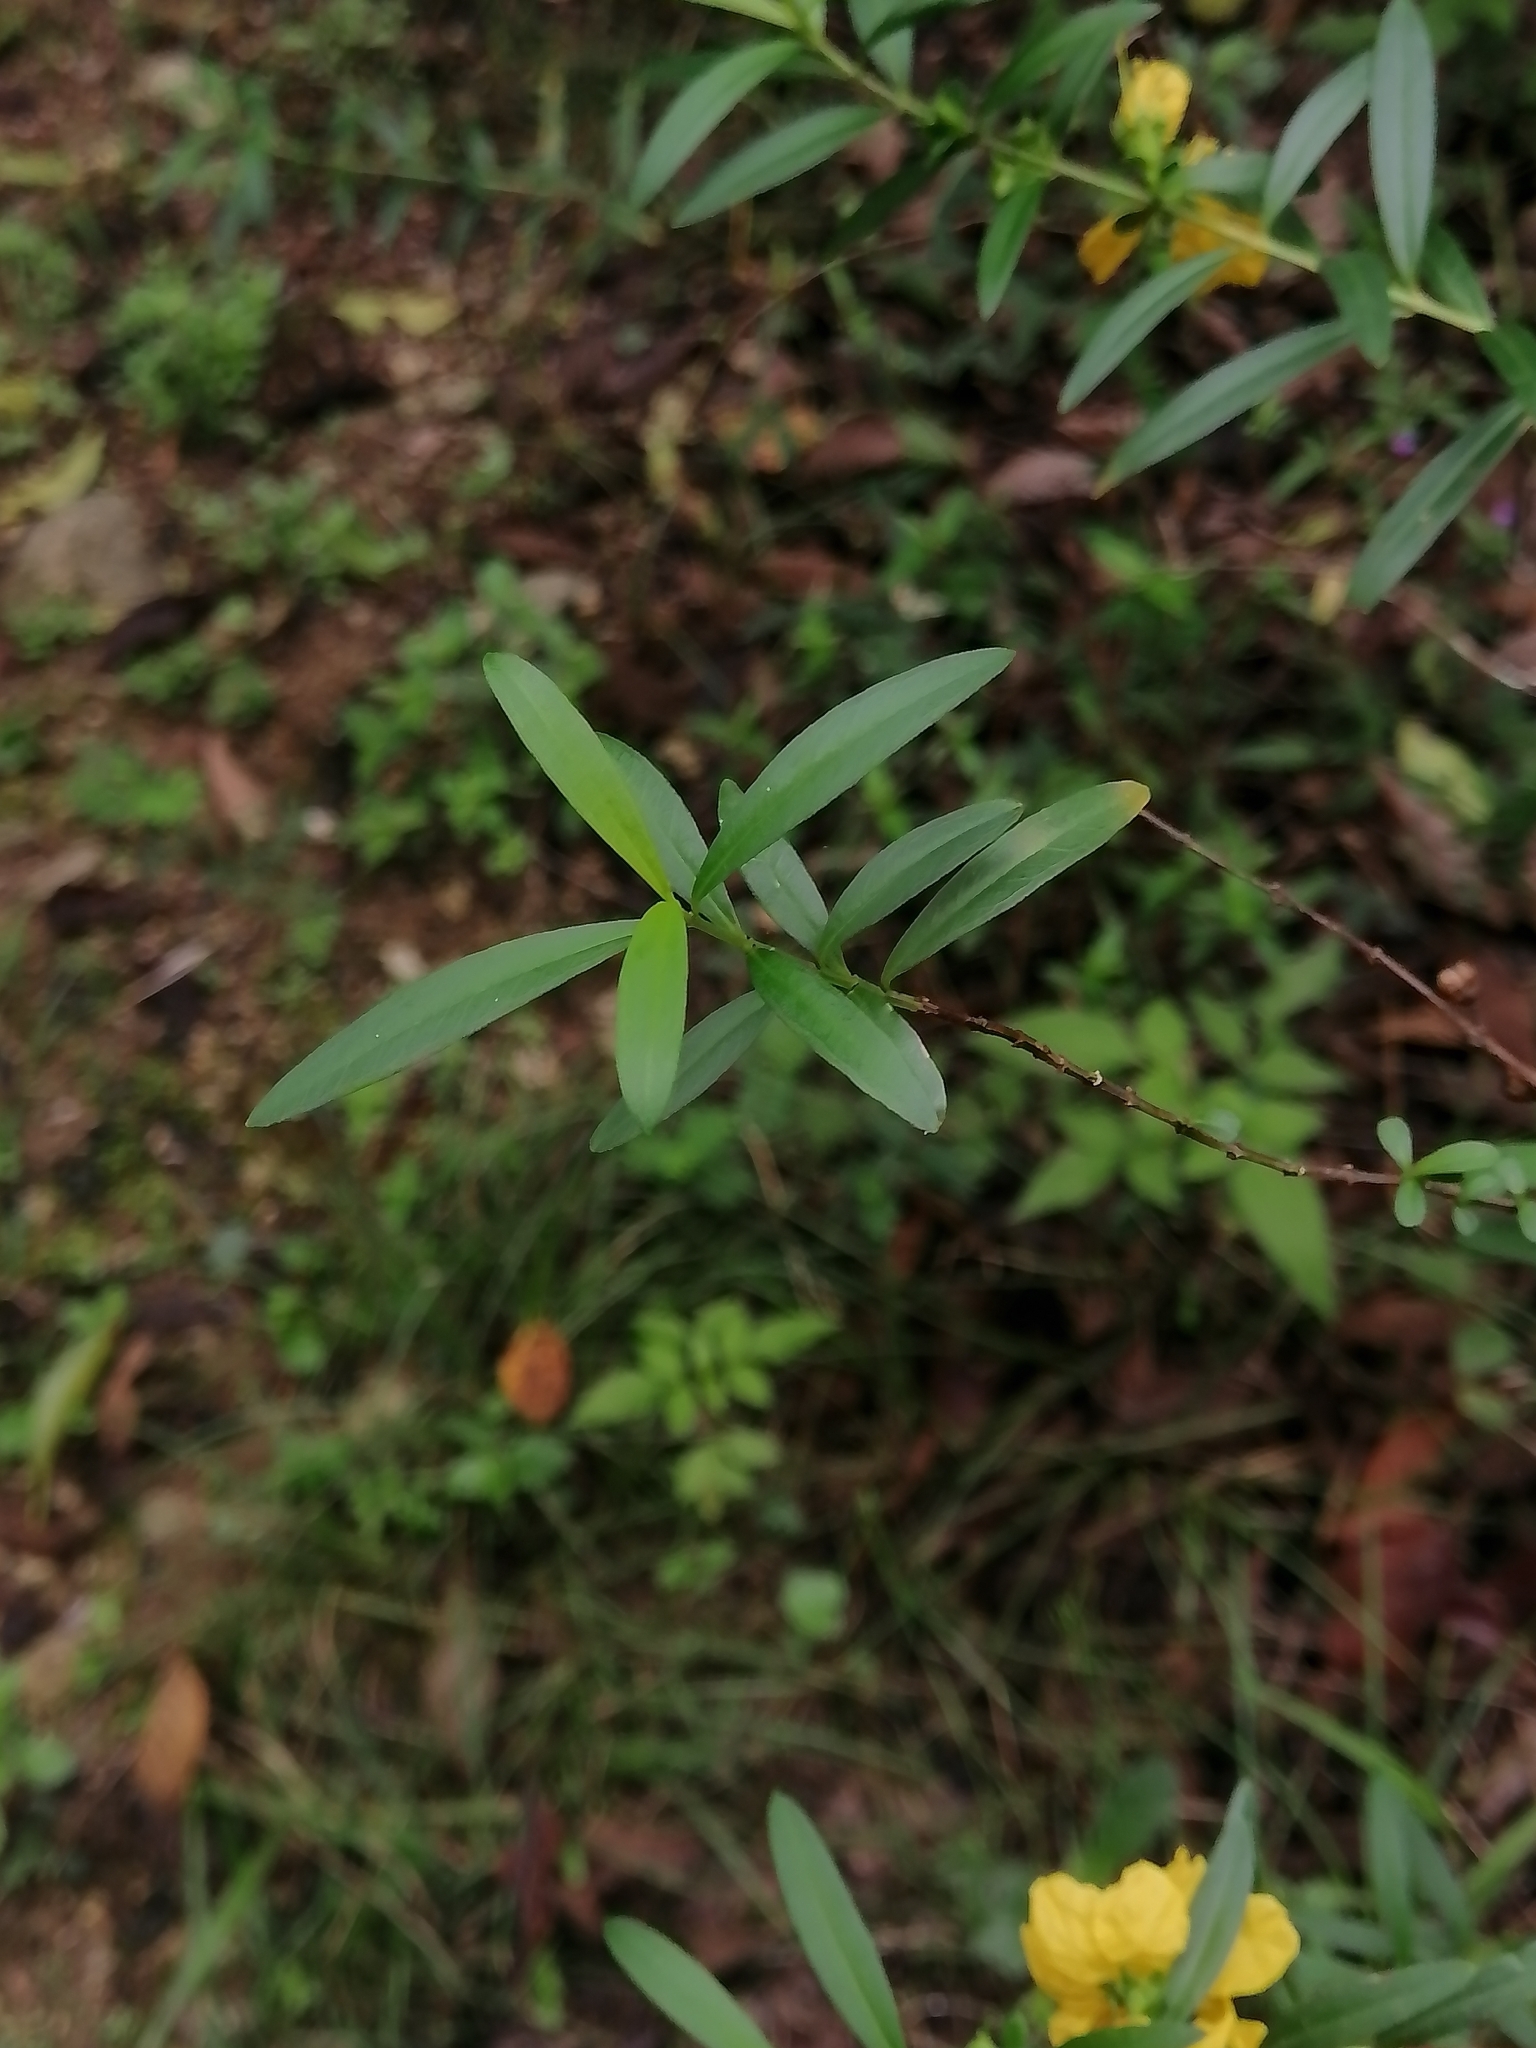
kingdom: Plantae
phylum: Tracheophyta
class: Magnoliopsida
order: Myrtales
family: Lythraceae
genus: Heimia
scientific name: Heimia salicifolia
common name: Willow-leaf heimia
